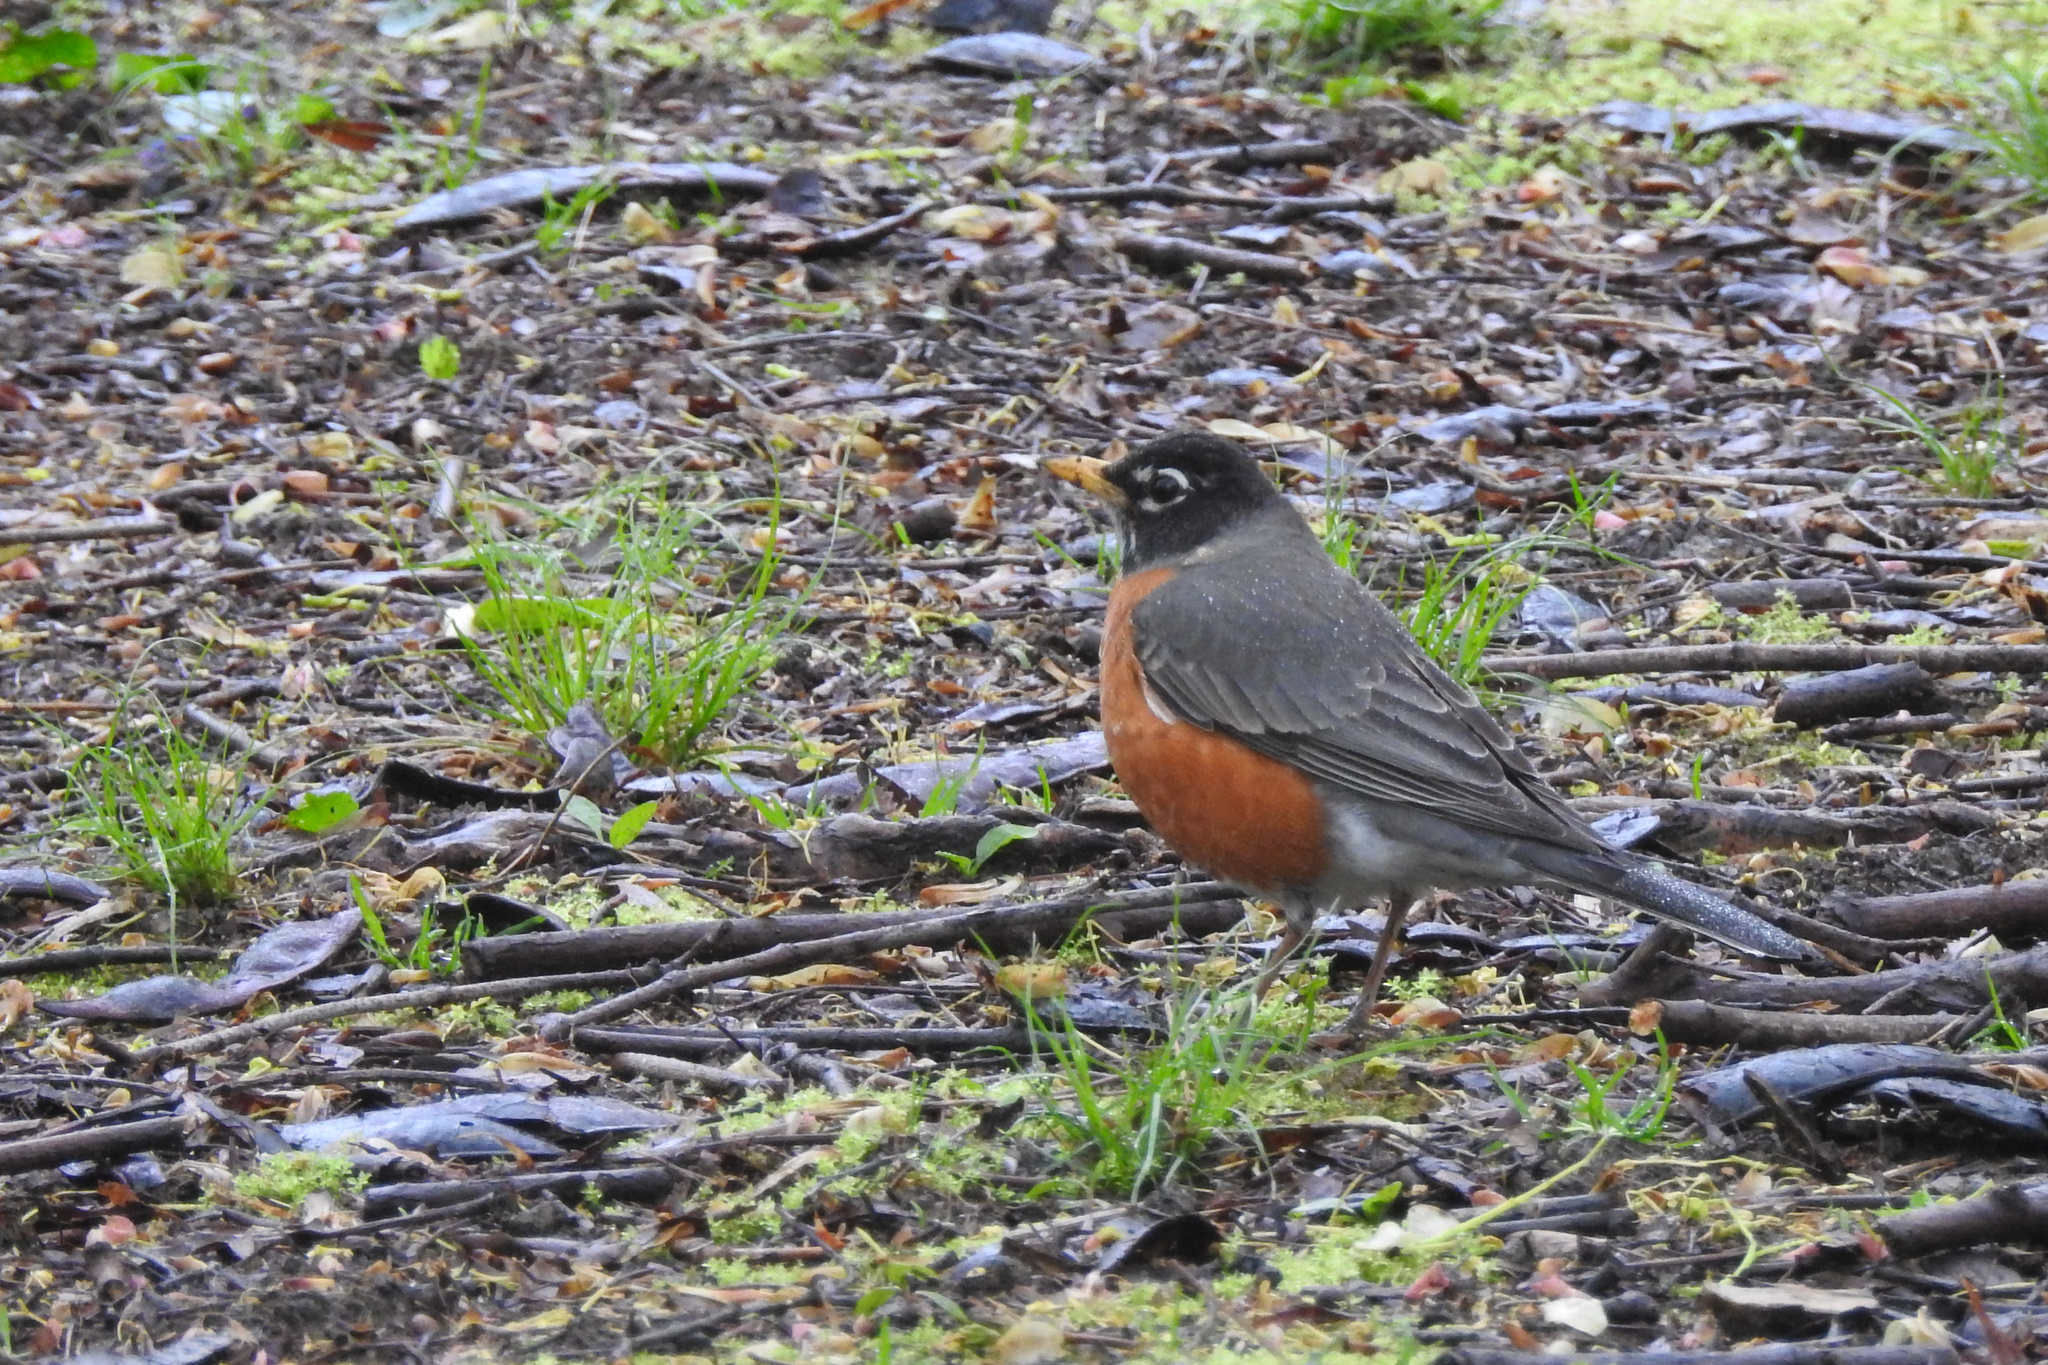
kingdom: Animalia
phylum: Chordata
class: Aves
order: Passeriformes
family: Turdidae
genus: Turdus
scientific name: Turdus migratorius
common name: American robin
